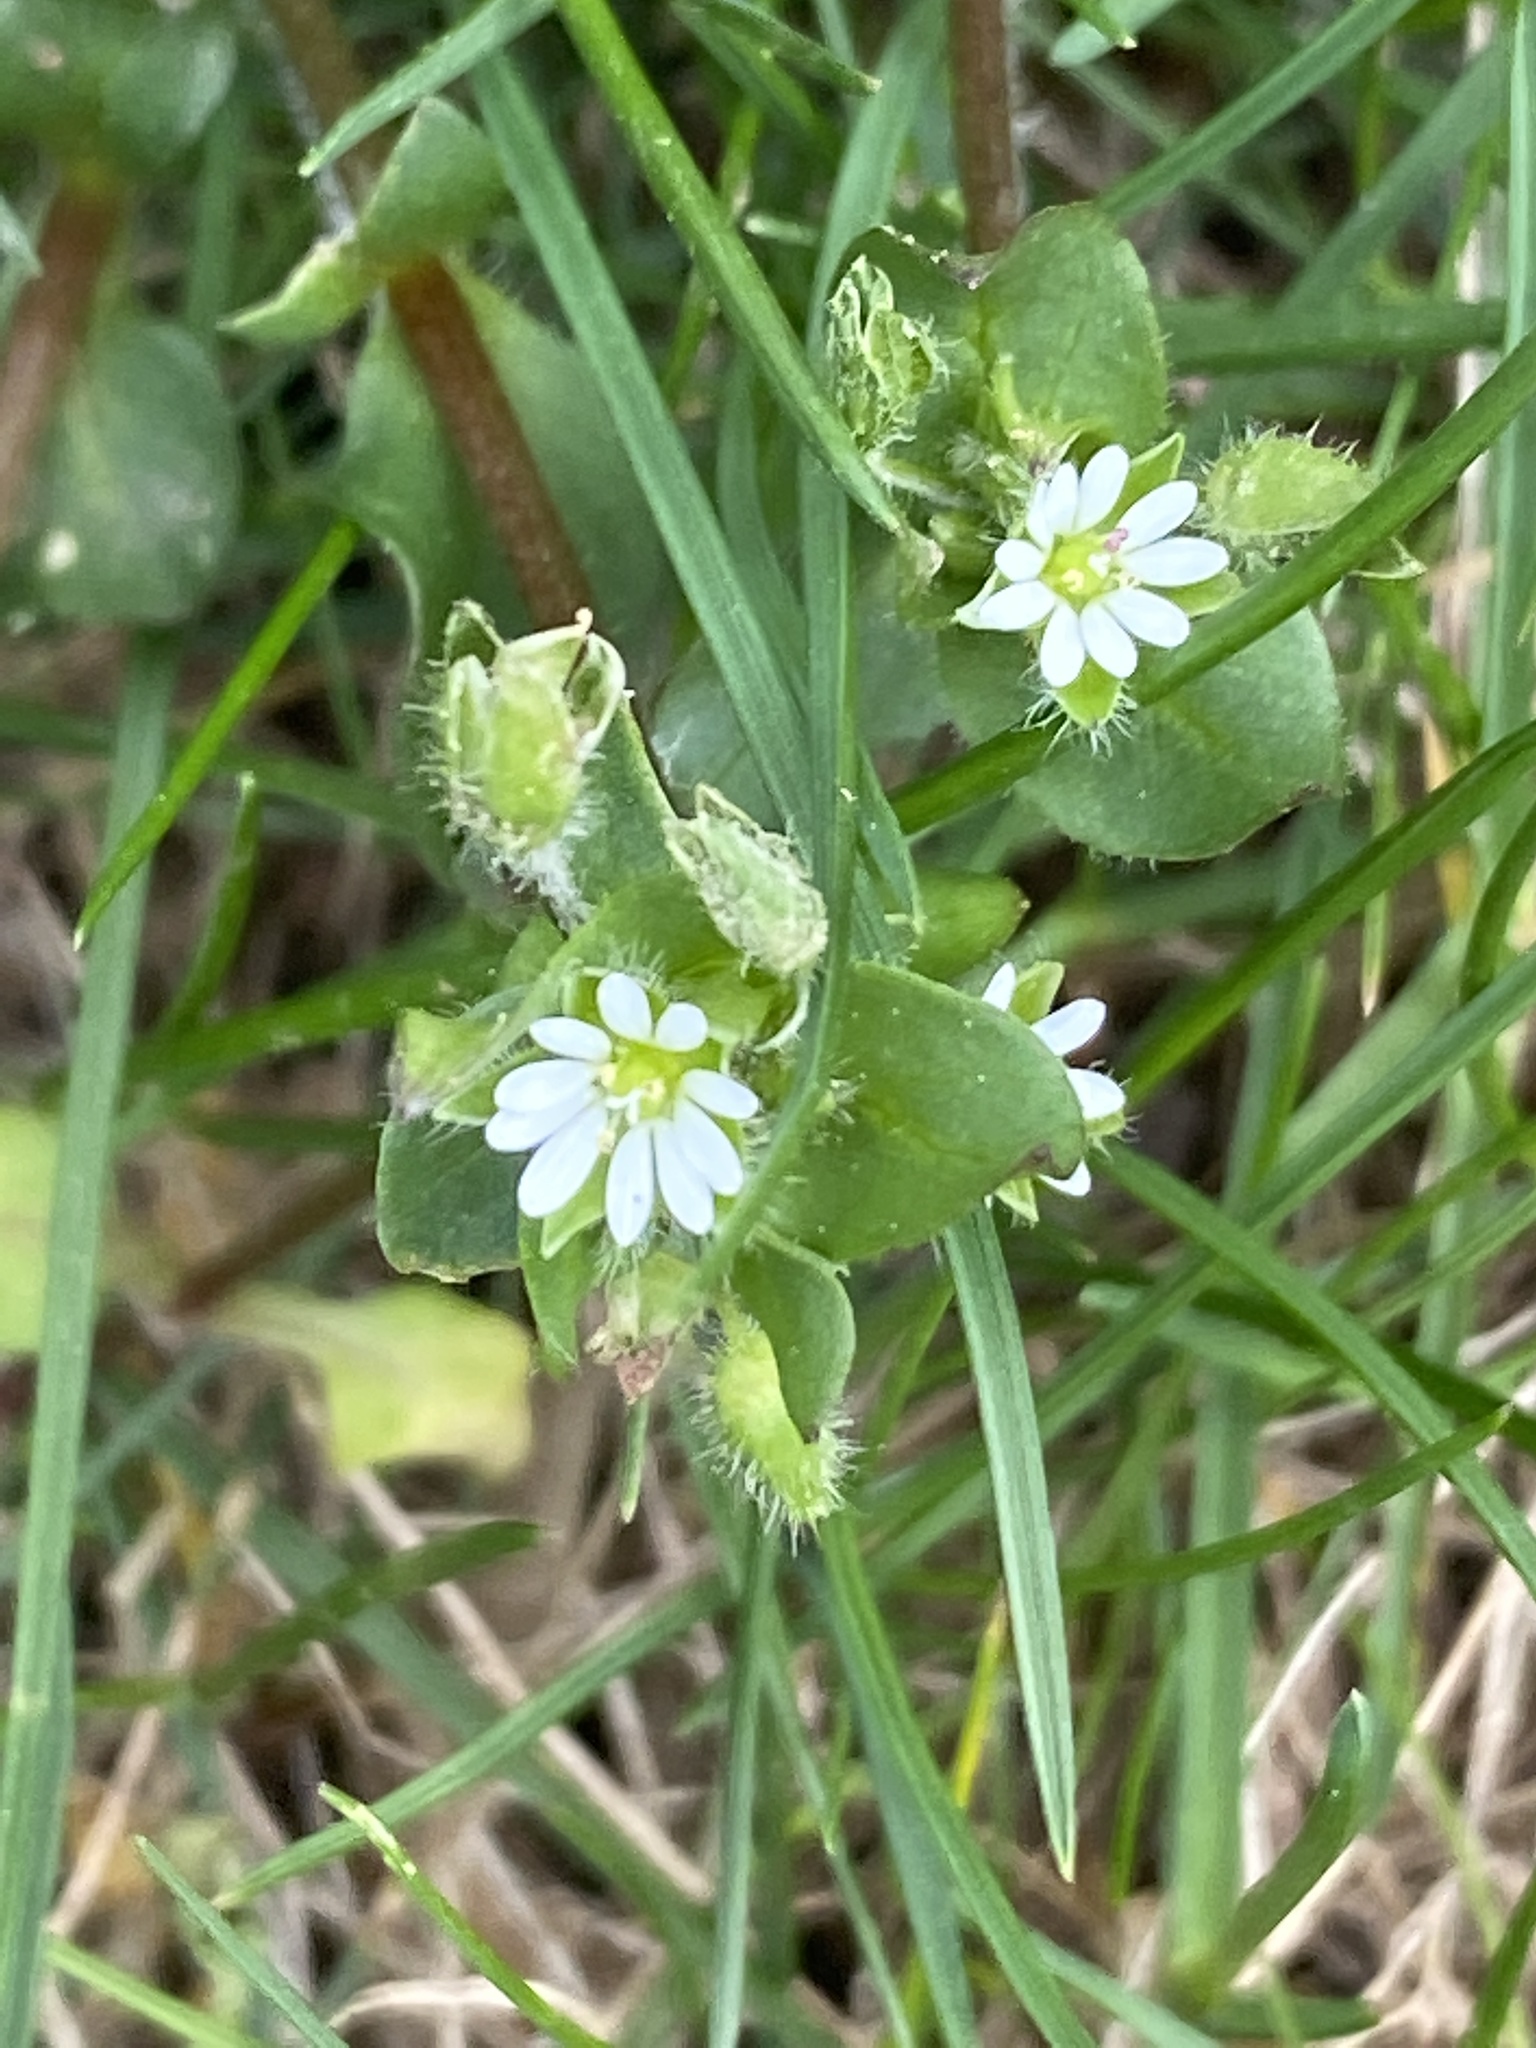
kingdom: Plantae
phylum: Tracheophyta
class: Magnoliopsida
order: Caryophyllales
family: Caryophyllaceae
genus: Stellaria
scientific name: Stellaria media
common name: Common chickweed
